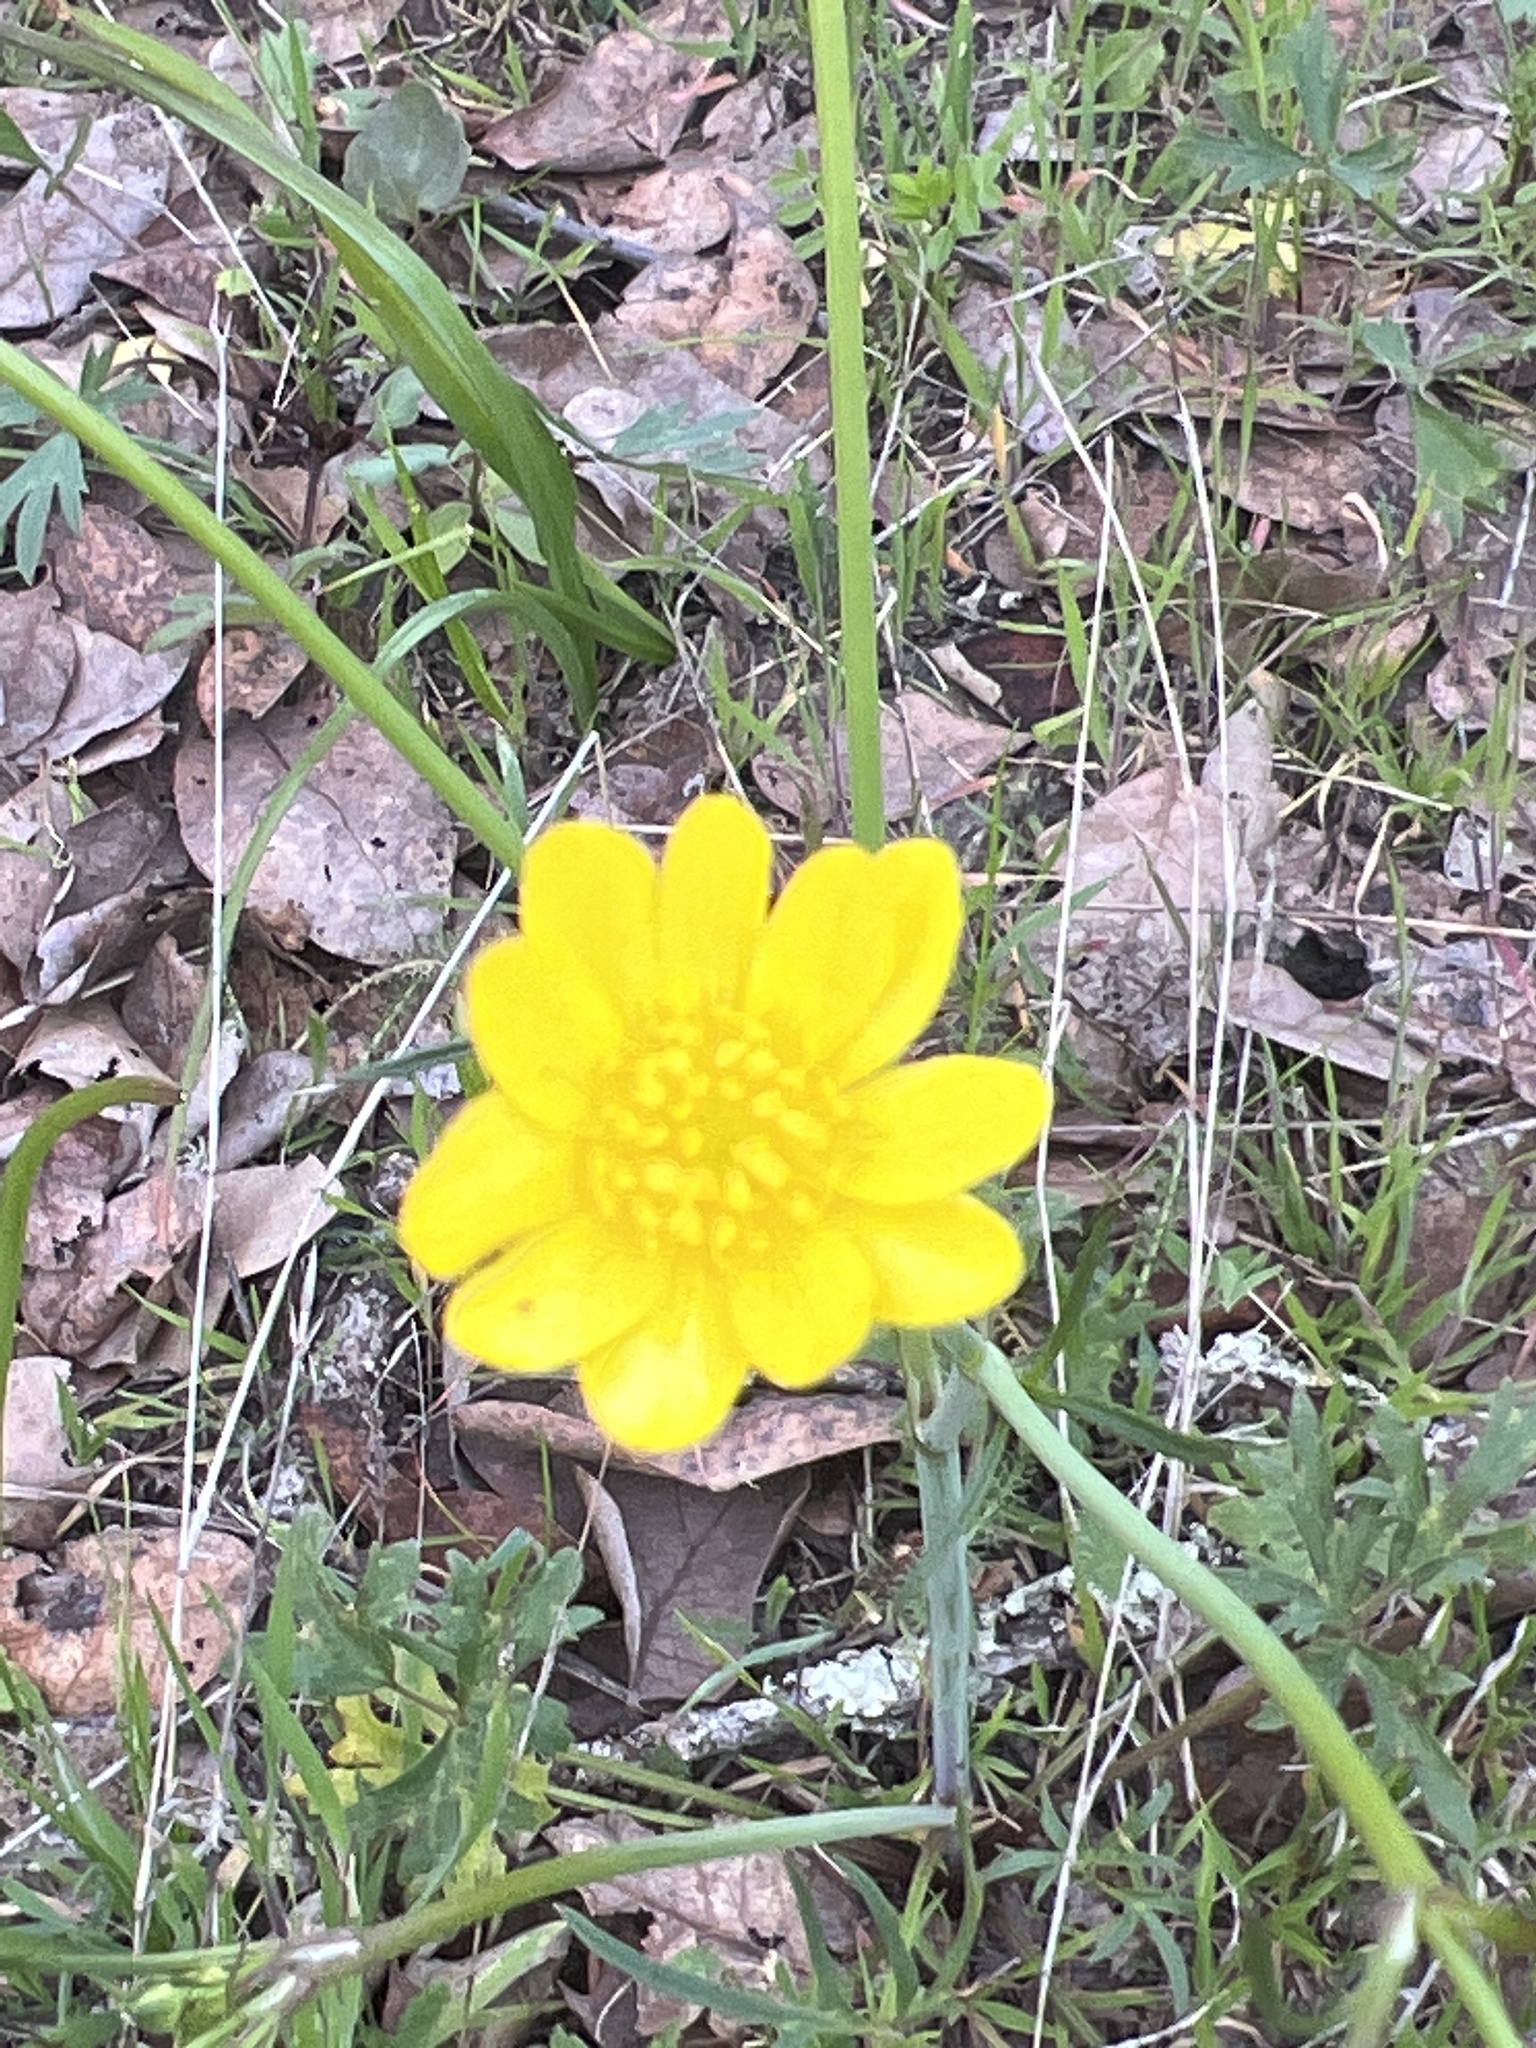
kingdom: Plantae
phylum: Tracheophyta
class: Magnoliopsida
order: Ranunculales
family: Ranunculaceae
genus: Ranunculus
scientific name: Ranunculus californicus
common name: California buttercup
